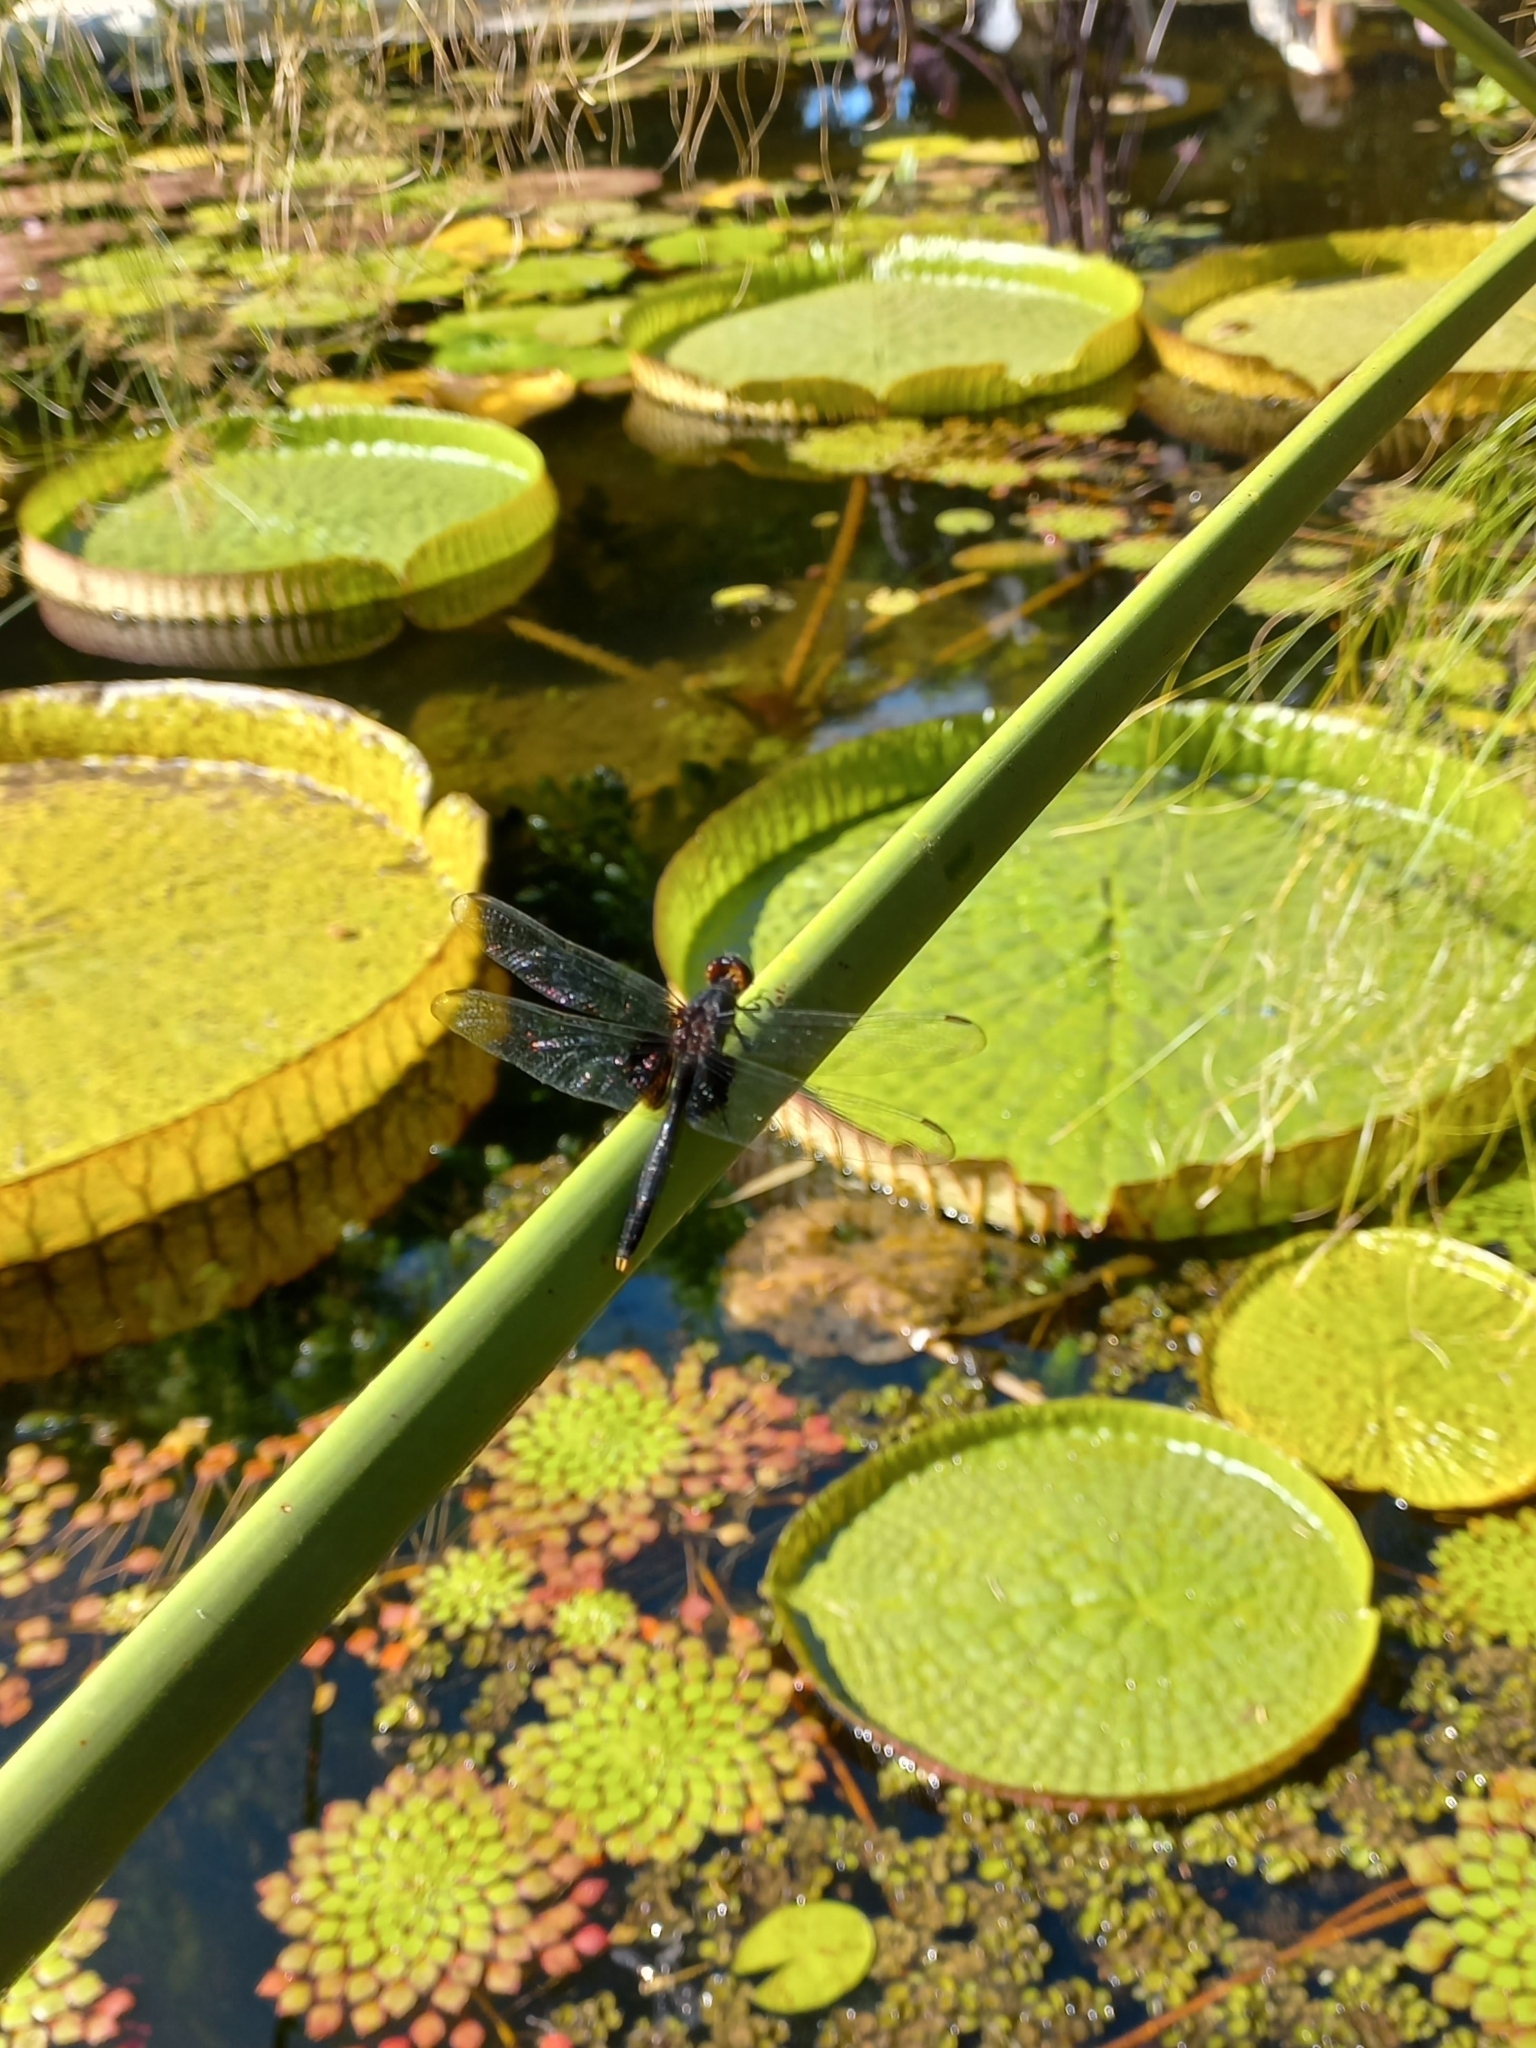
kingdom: Animalia
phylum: Arthropoda
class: Insecta
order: Odonata
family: Libellulidae
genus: Erythemis
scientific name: Erythemis attala
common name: Black pondhawk
